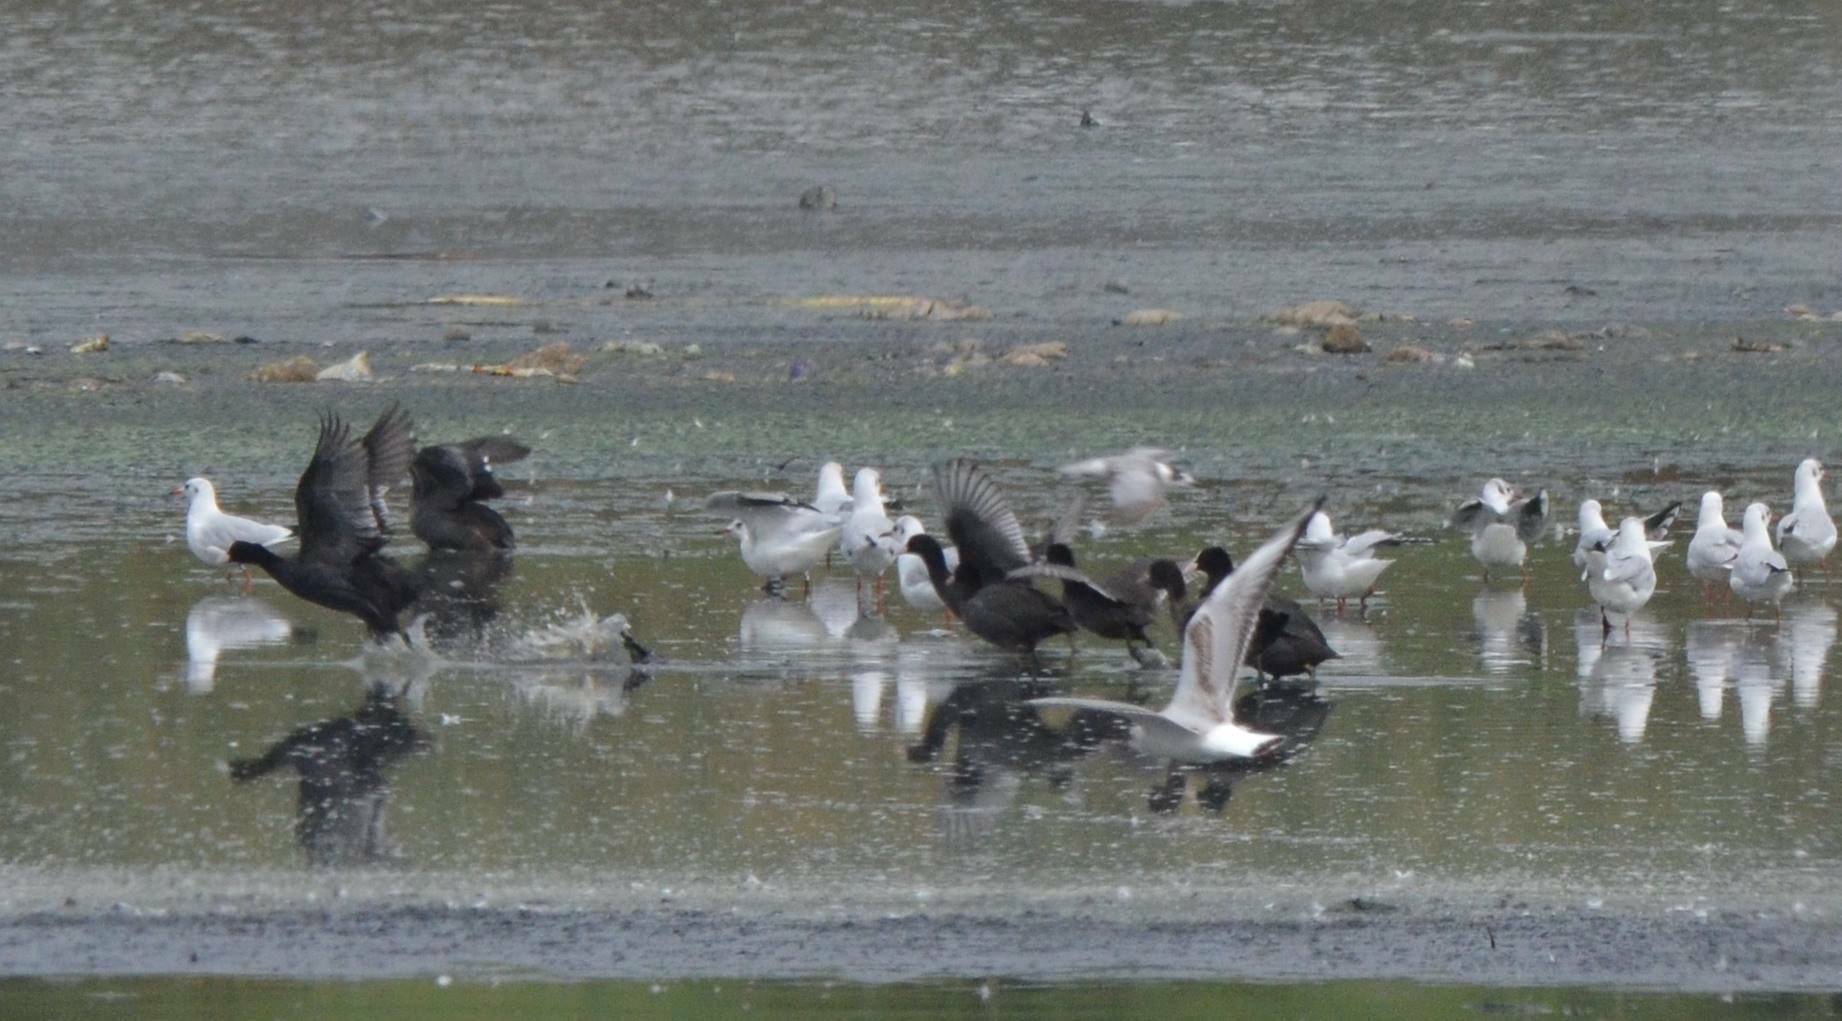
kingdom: Animalia
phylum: Chordata
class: Aves
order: Gruiformes
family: Rallidae
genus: Fulica
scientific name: Fulica atra
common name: Eurasian coot
